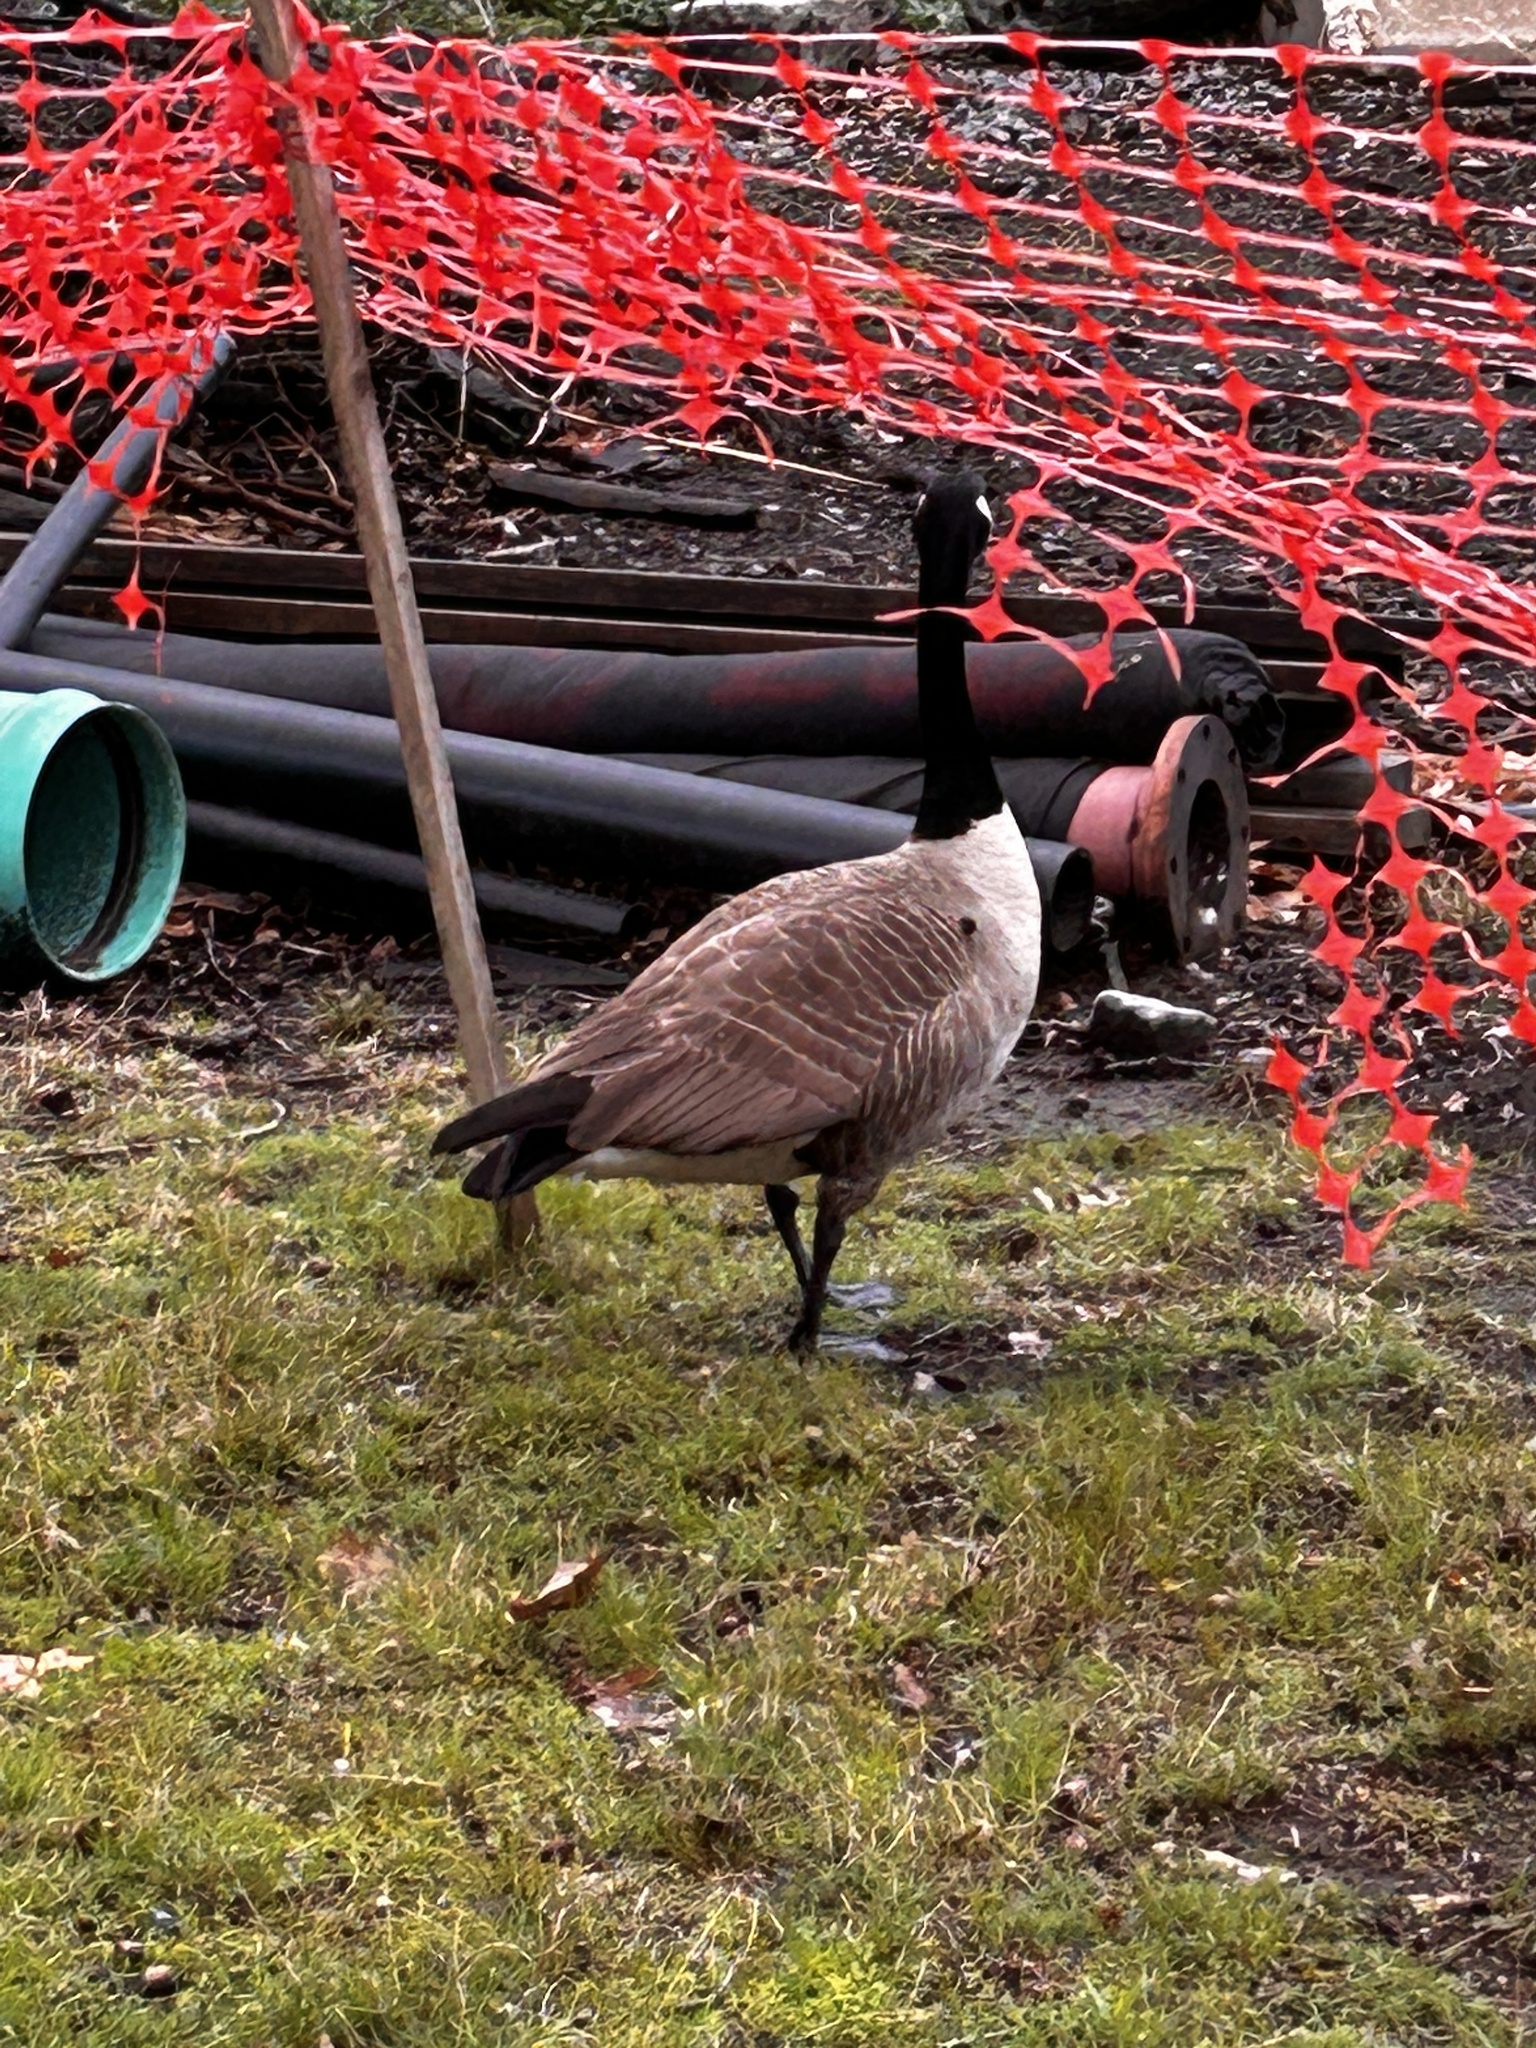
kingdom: Animalia
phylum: Chordata
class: Aves
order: Anseriformes
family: Anatidae
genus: Branta
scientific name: Branta canadensis
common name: Canada goose
